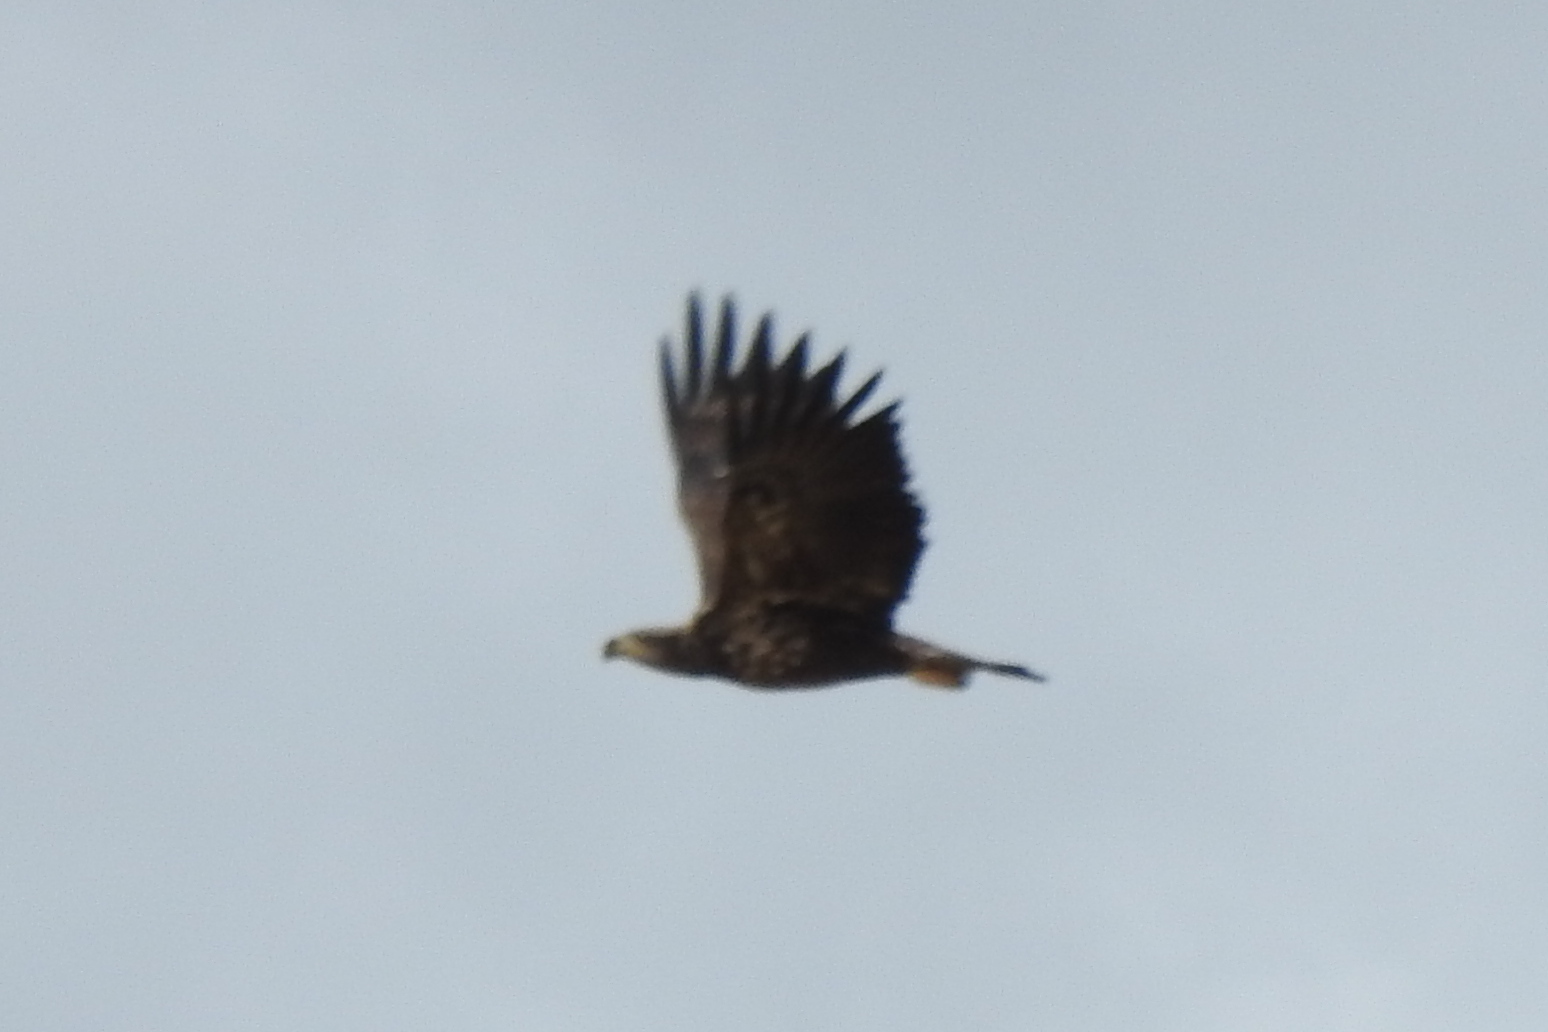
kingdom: Animalia
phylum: Chordata
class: Aves
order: Accipitriformes
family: Accipitridae
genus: Haliaeetus
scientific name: Haliaeetus leucocephalus
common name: Bald eagle
